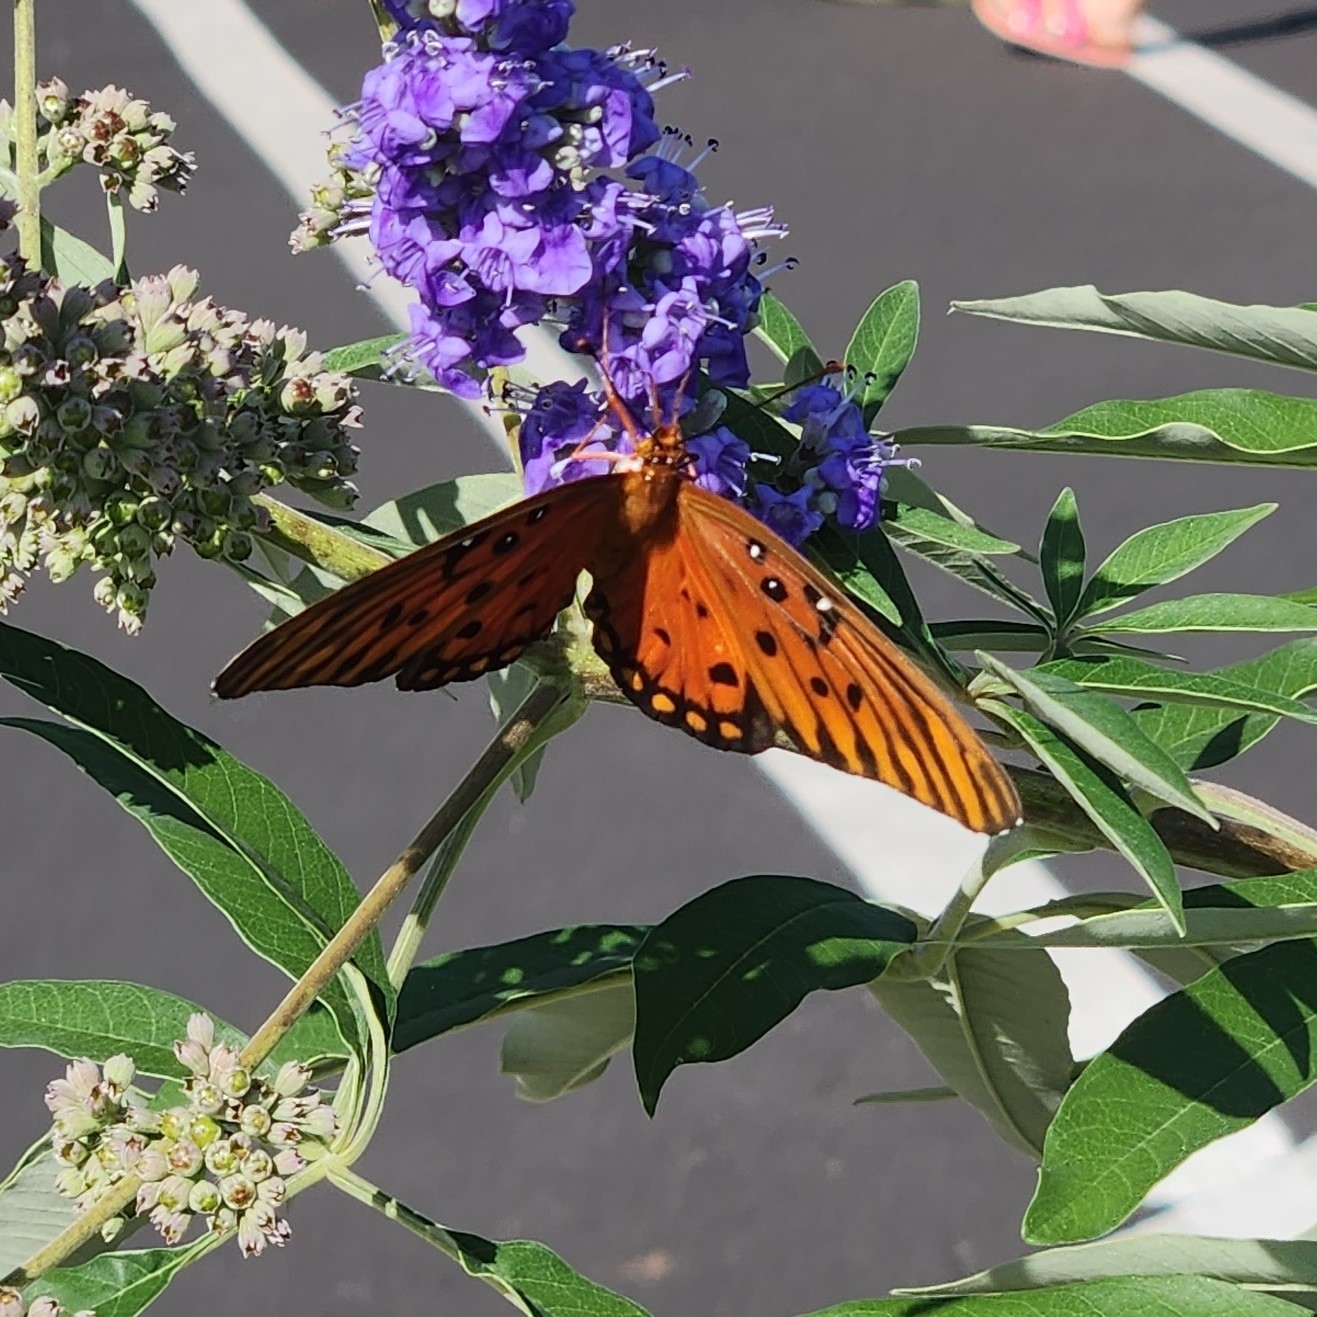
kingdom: Animalia
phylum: Arthropoda
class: Insecta
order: Lepidoptera
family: Nymphalidae
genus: Dione
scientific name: Dione vanillae
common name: Gulf fritillary
